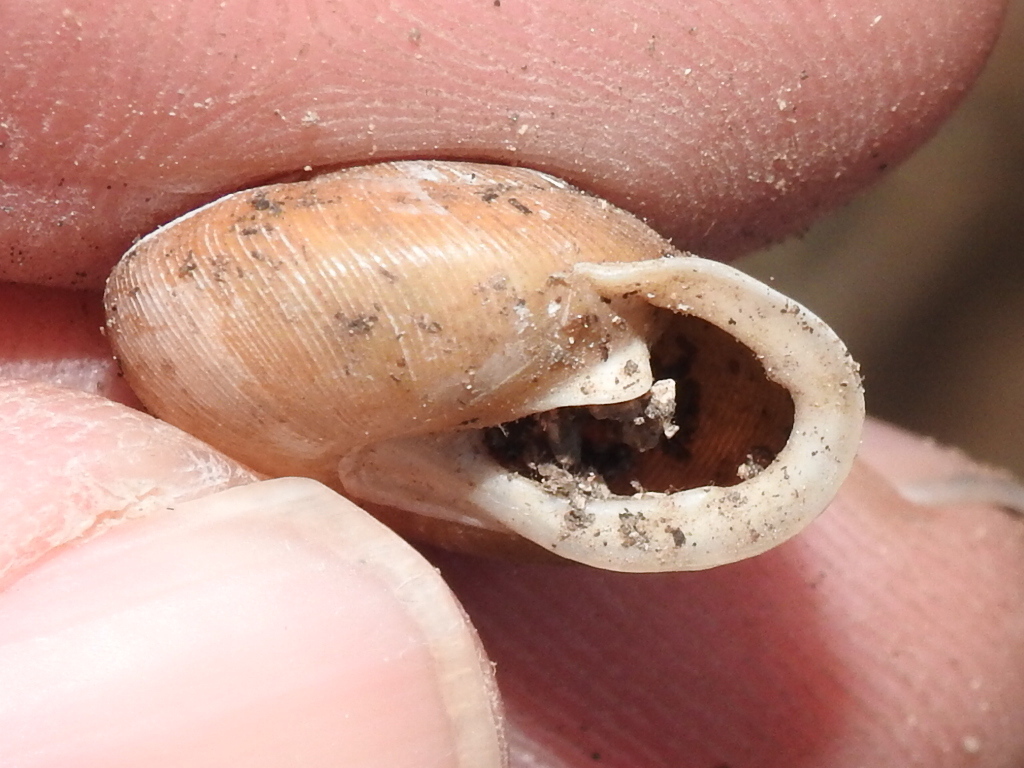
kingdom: Animalia
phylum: Mollusca
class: Gastropoda
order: Stylommatophora
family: Polygyridae
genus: Xolotrema
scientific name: Xolotrema fosteri
